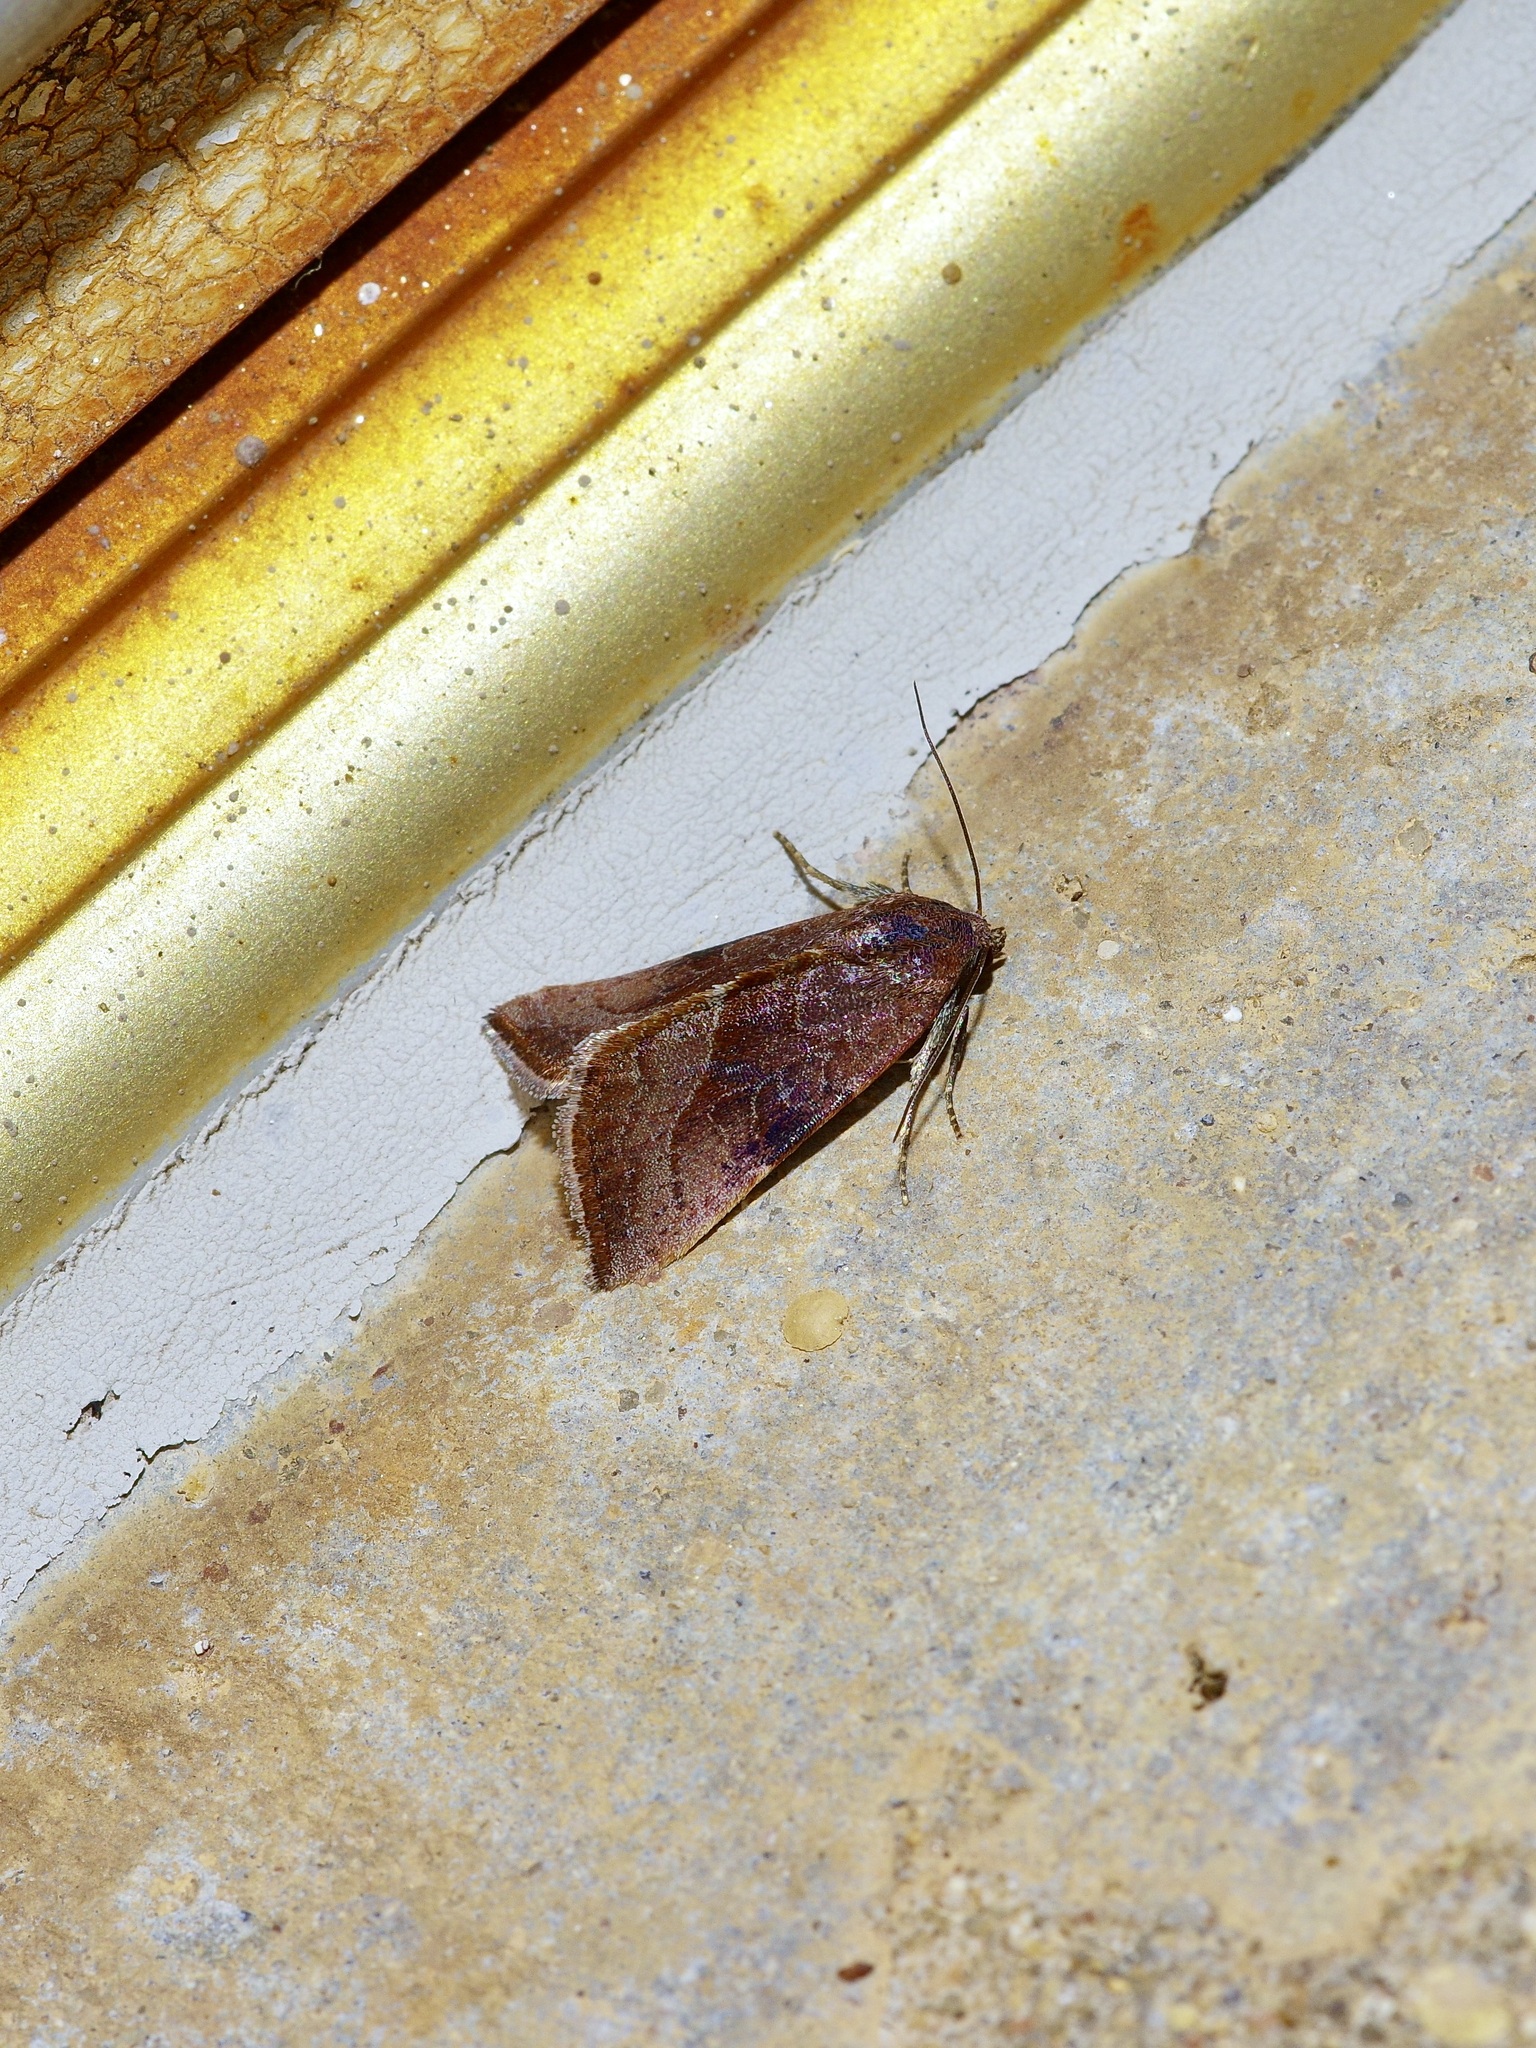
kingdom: Animalia
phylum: Arthropoda
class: Insecta
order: Lepidoptera
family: Noctuidae
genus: Galgula
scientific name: Galgula partita
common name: Wedgeling
